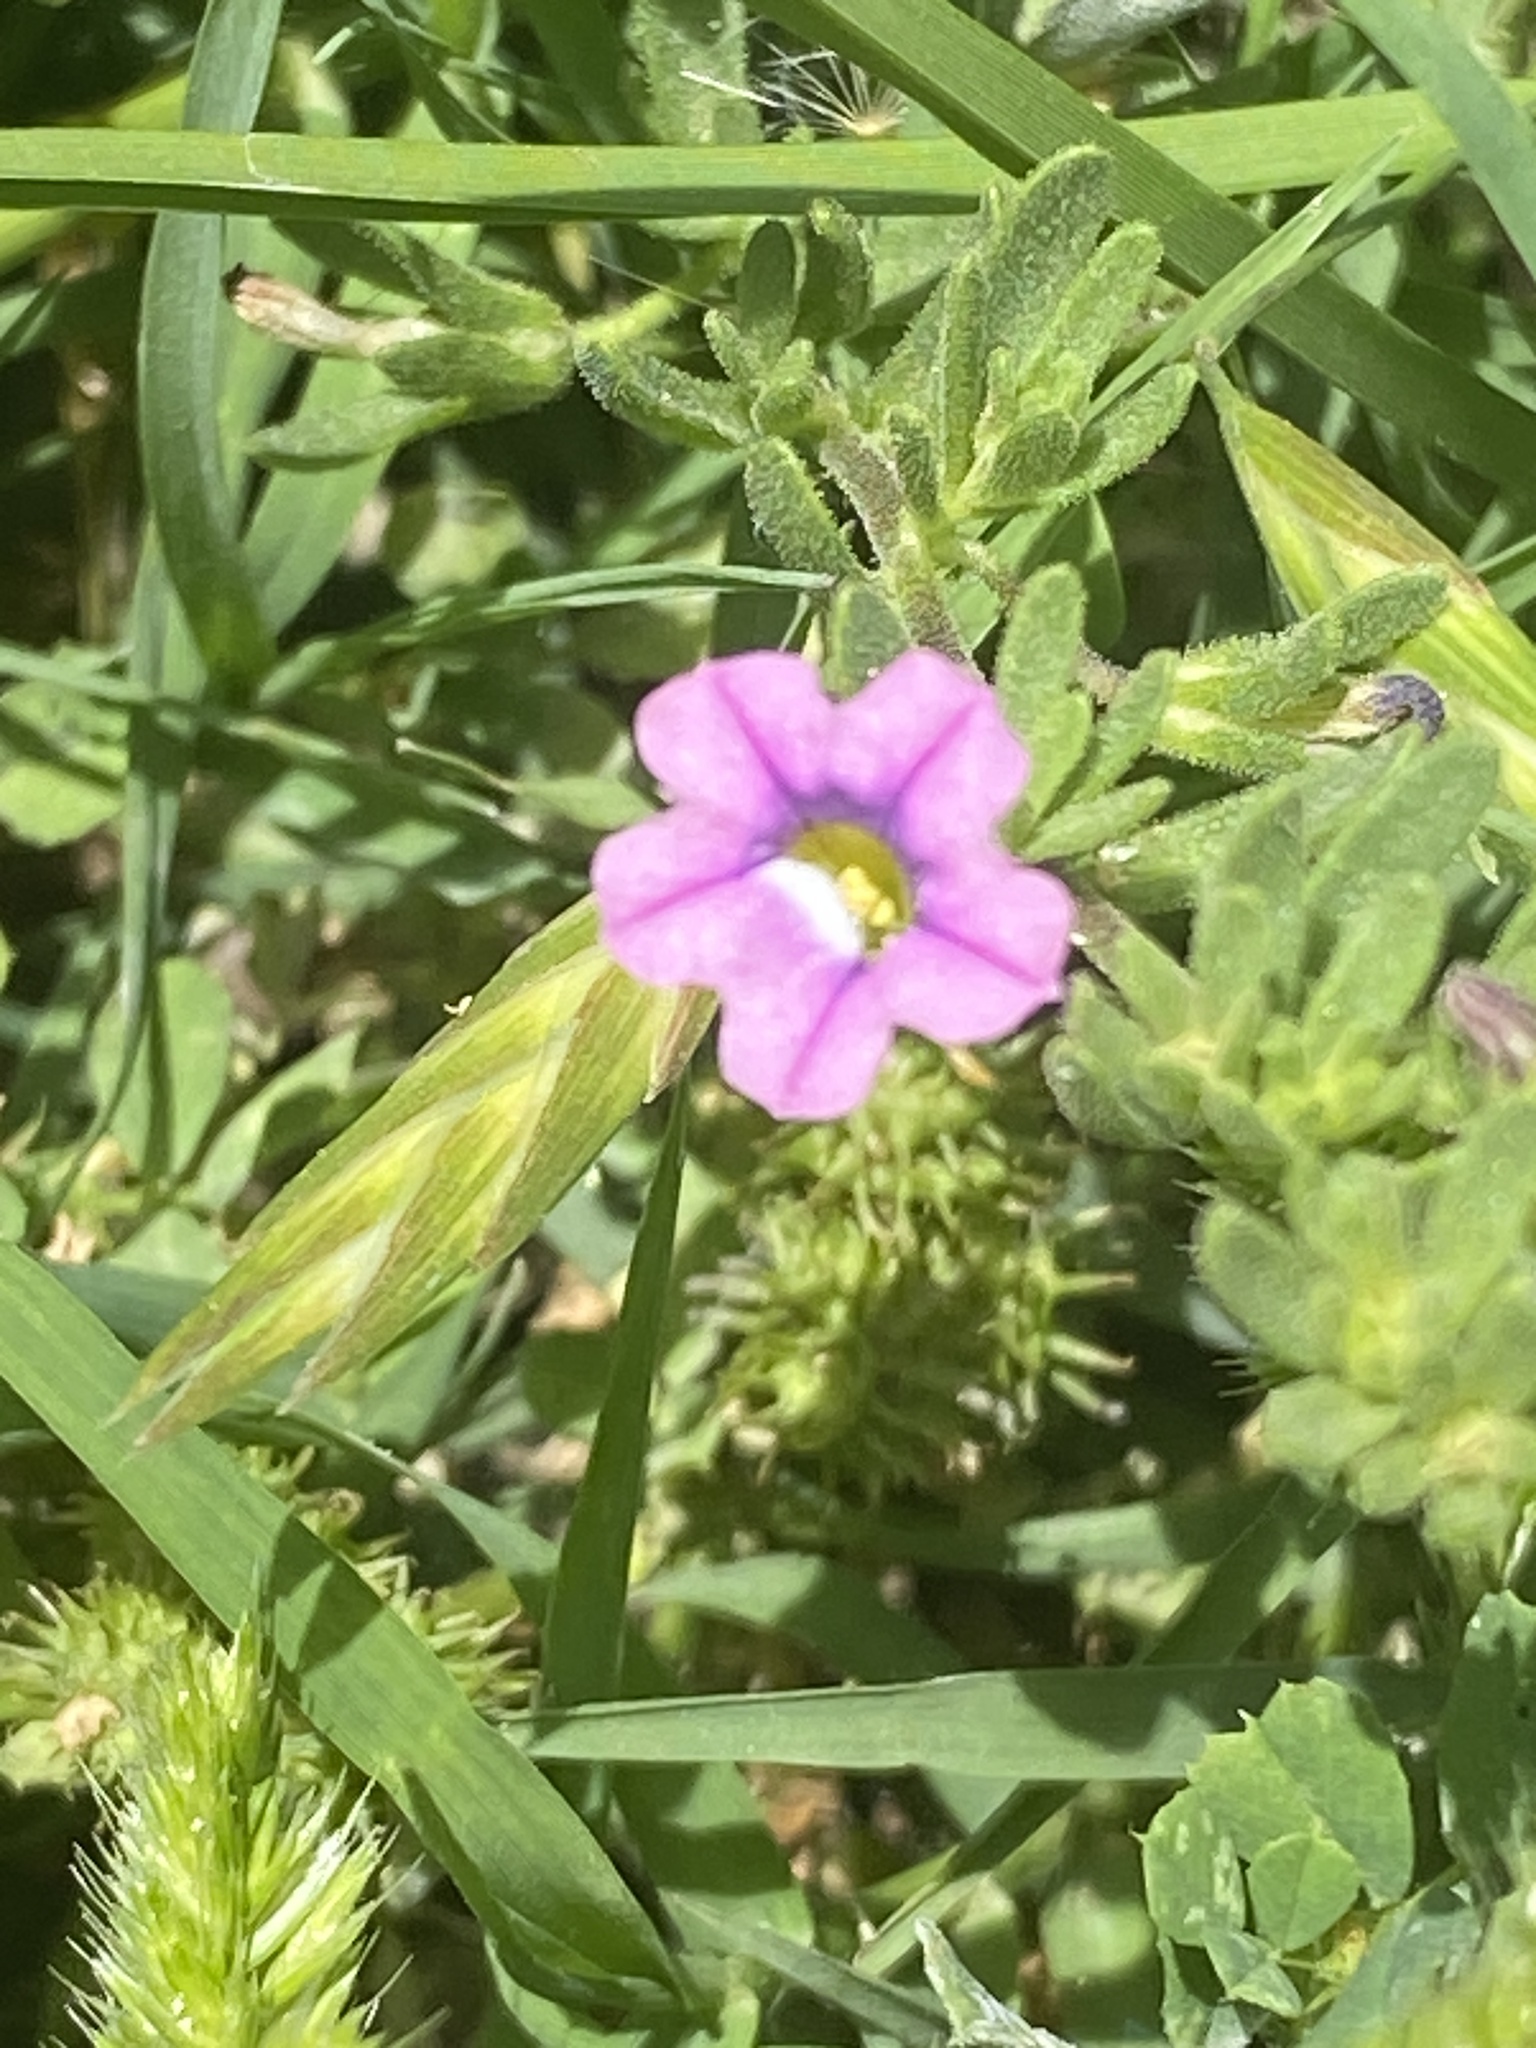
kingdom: Plantae
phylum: Tracheophyta
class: Magnoliopsida
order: Solanales
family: Solanaceae
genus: Calibrachoa
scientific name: Calibrachoa parviflora
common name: Seaside petunia
